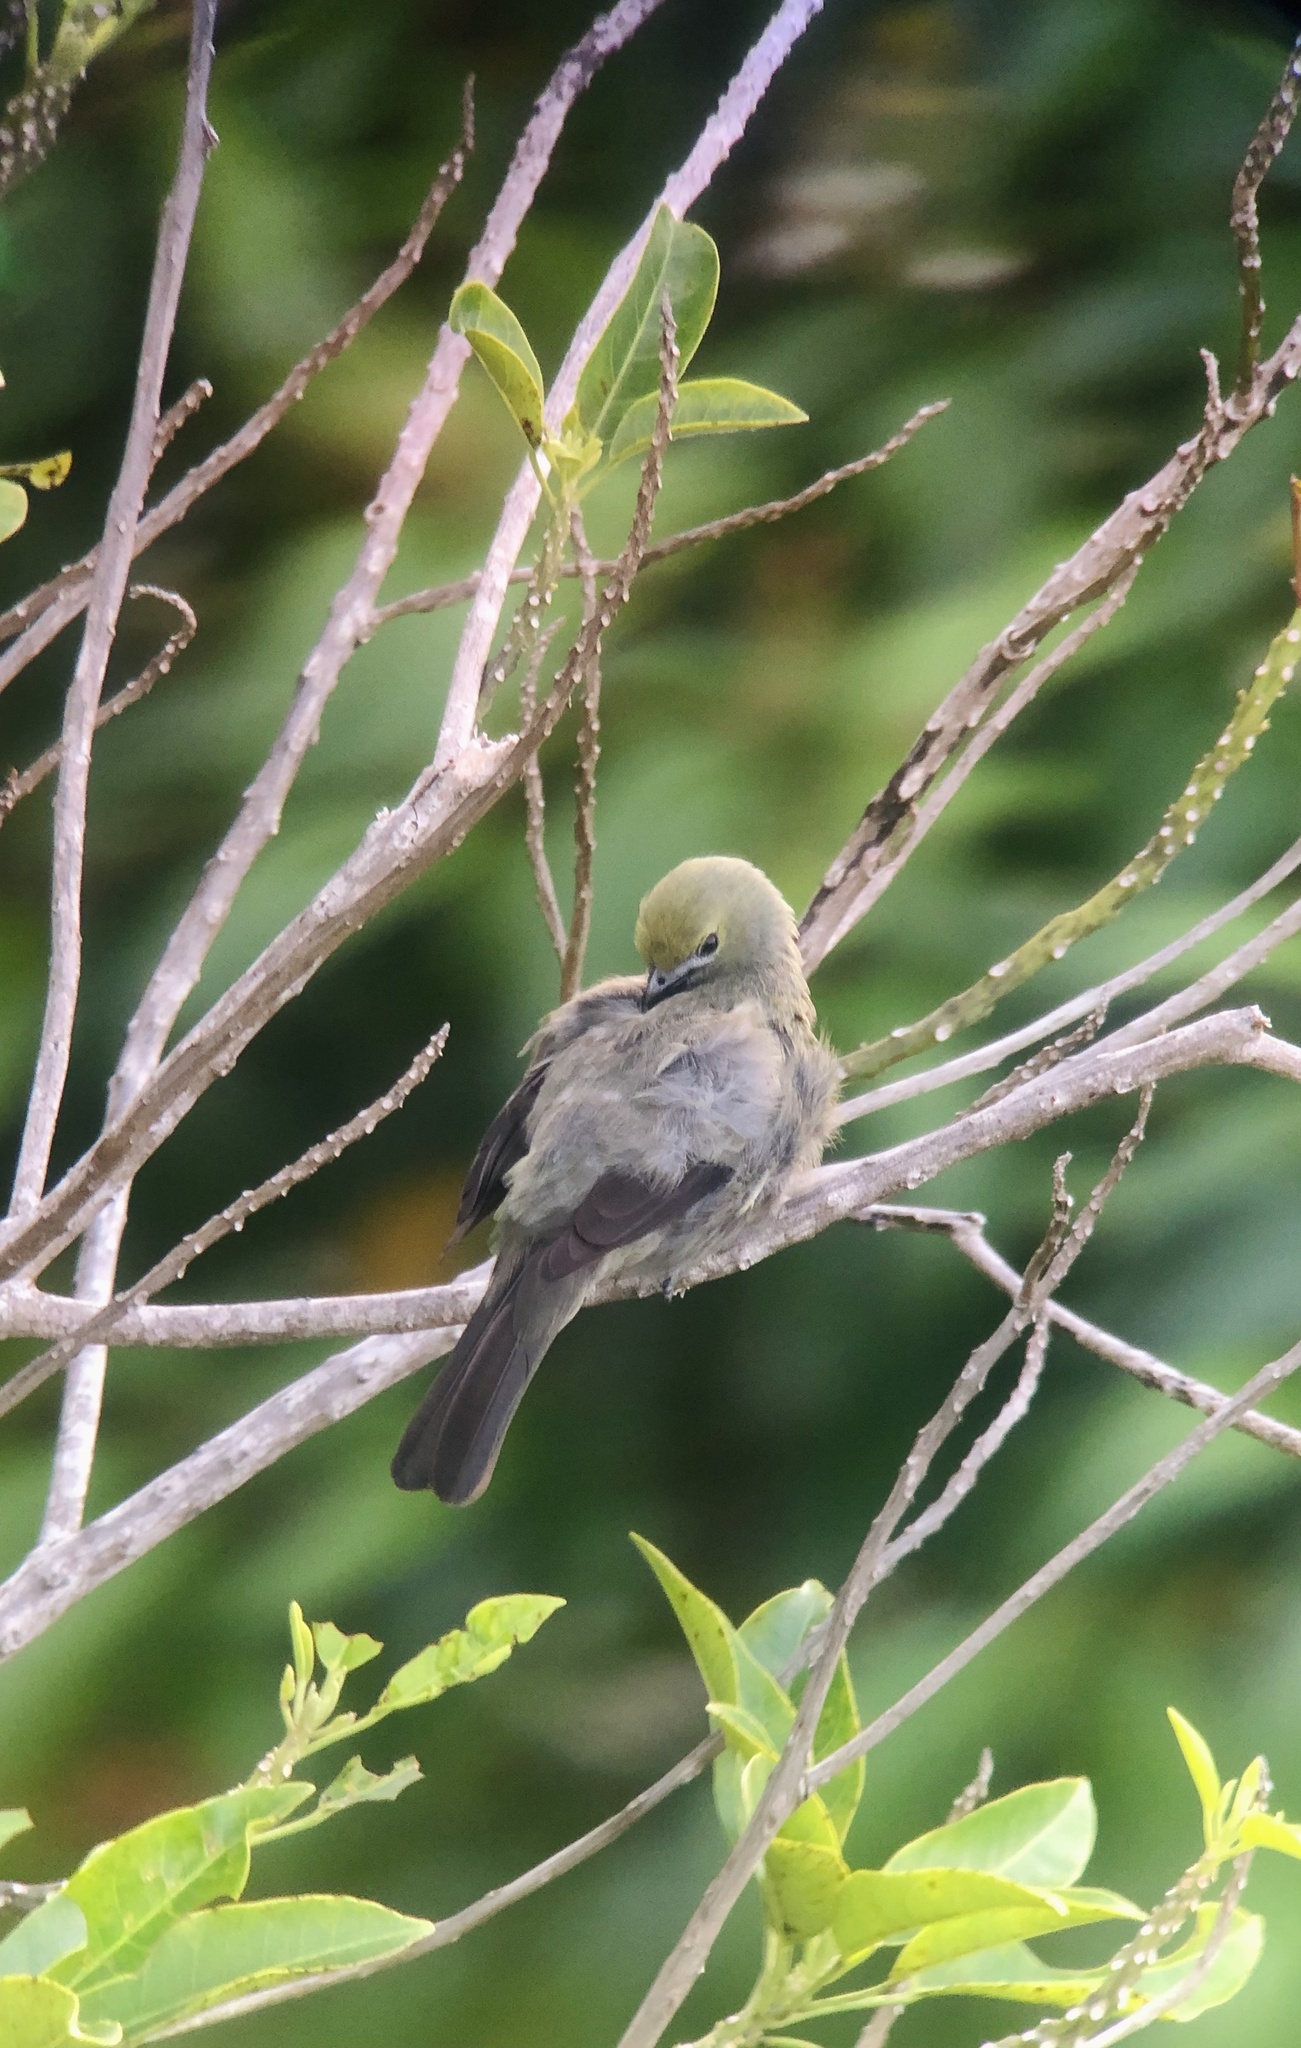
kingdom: Animalia
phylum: Chordata
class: Aves
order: Passeriformes
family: Thraupidae
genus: Thraupis
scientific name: Thraupis palmarum
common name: Palm tanager
